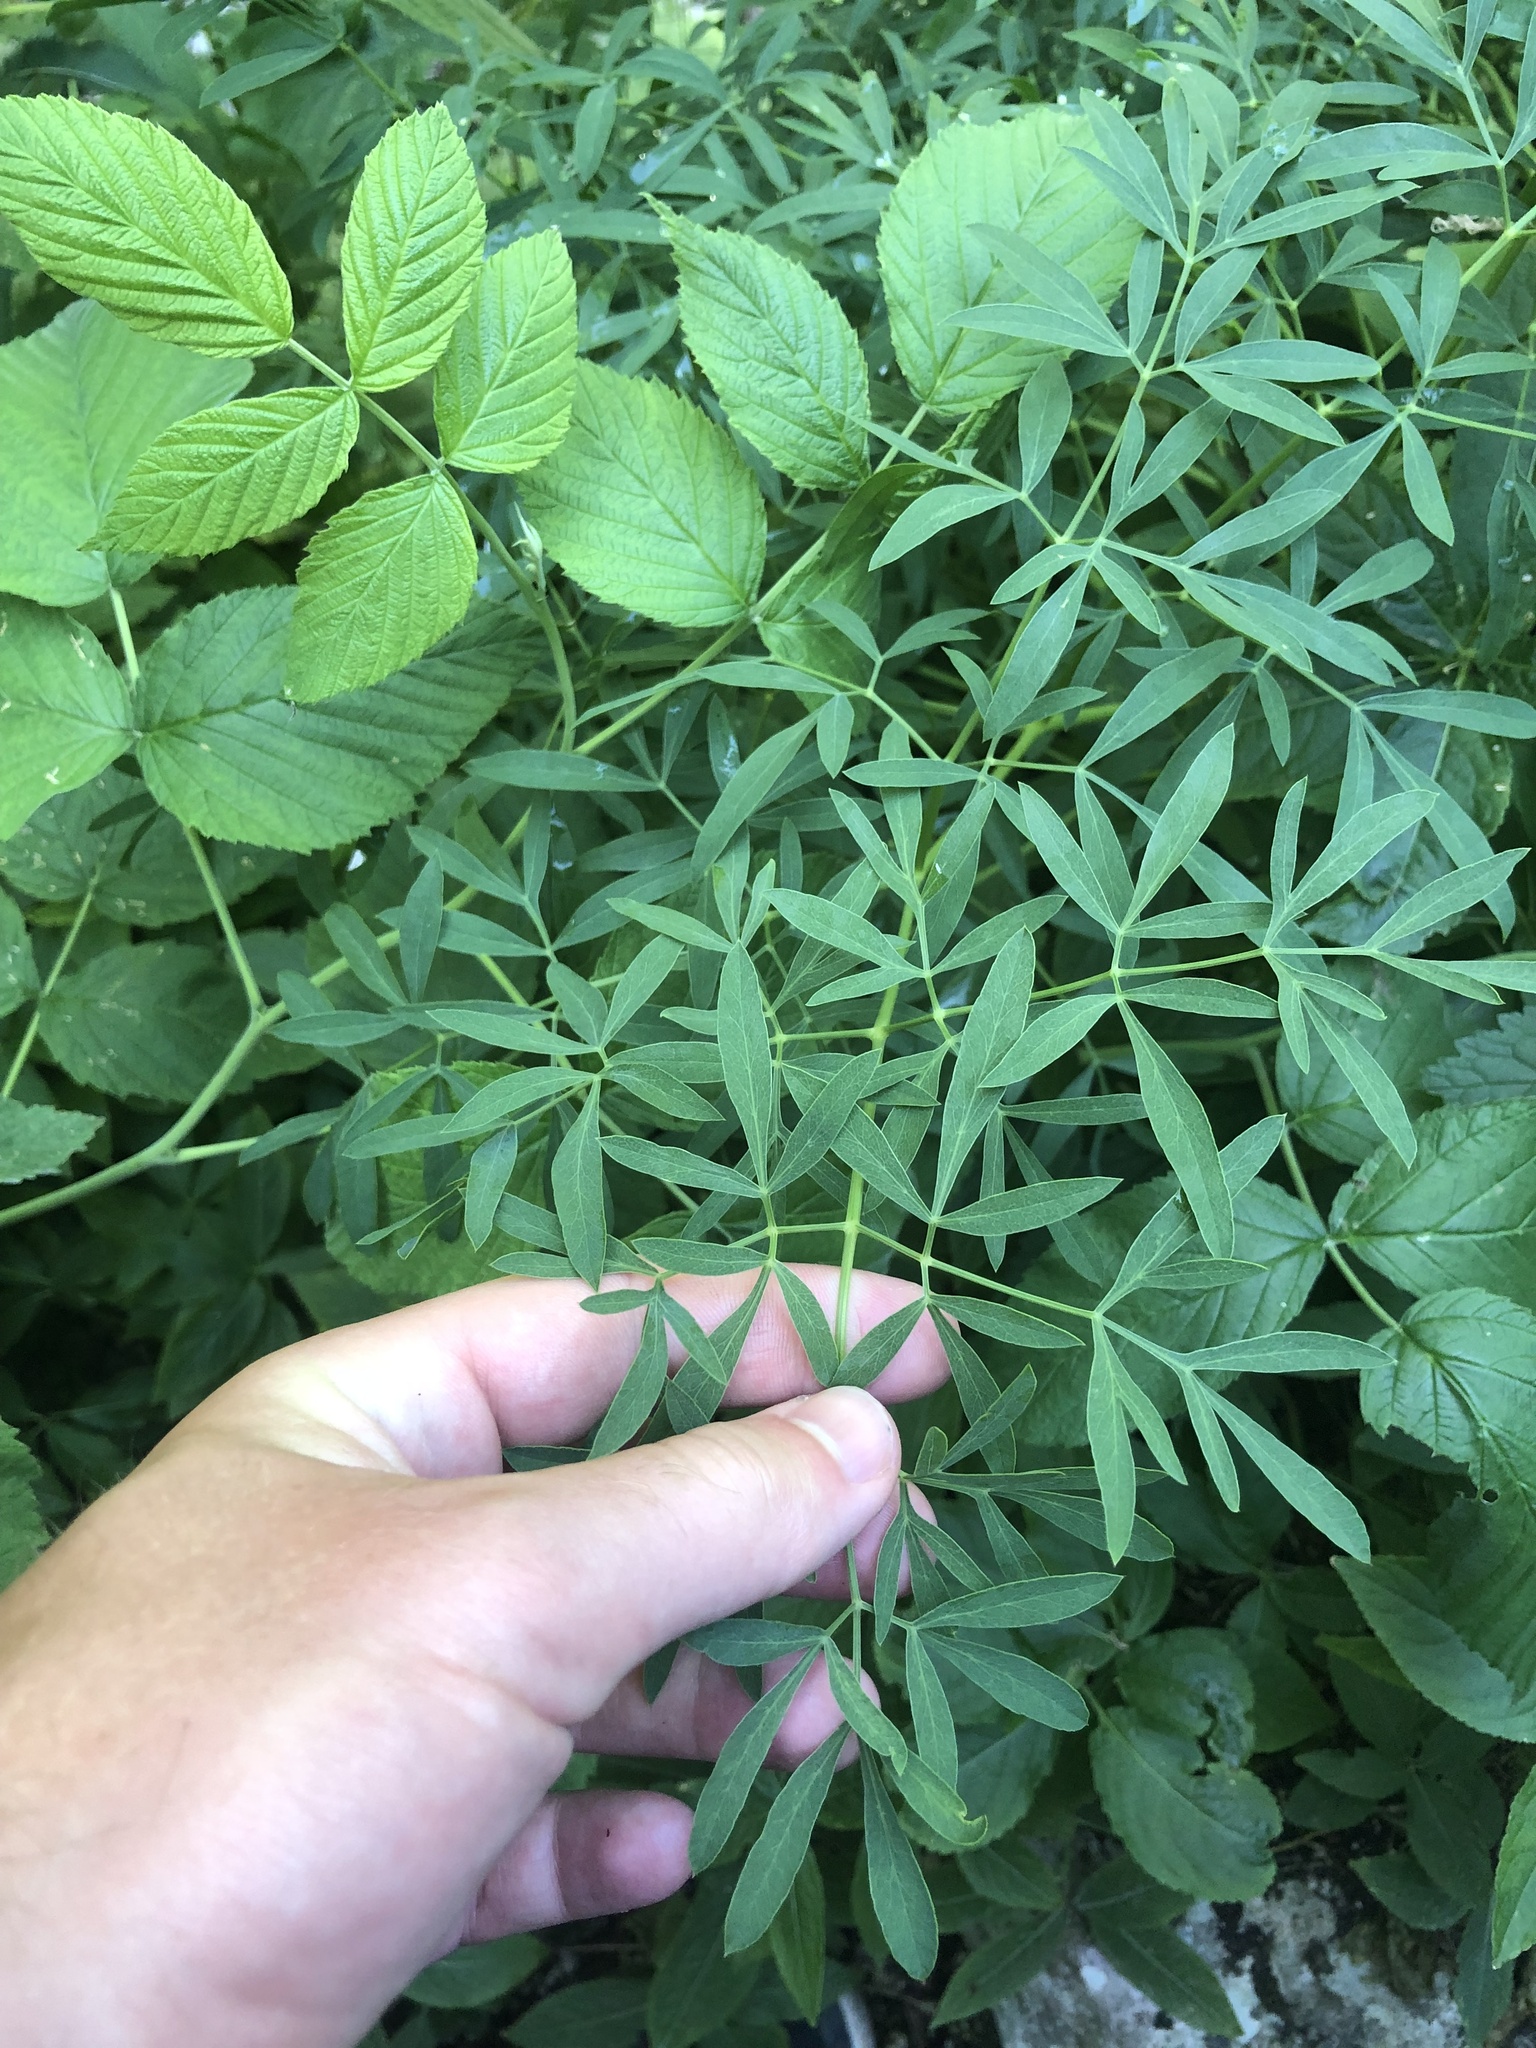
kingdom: Plantae
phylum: Tracheophyta
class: Magnoliopsida
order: Apiales
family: Apiaceae
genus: Siler
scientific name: Siler montanum
